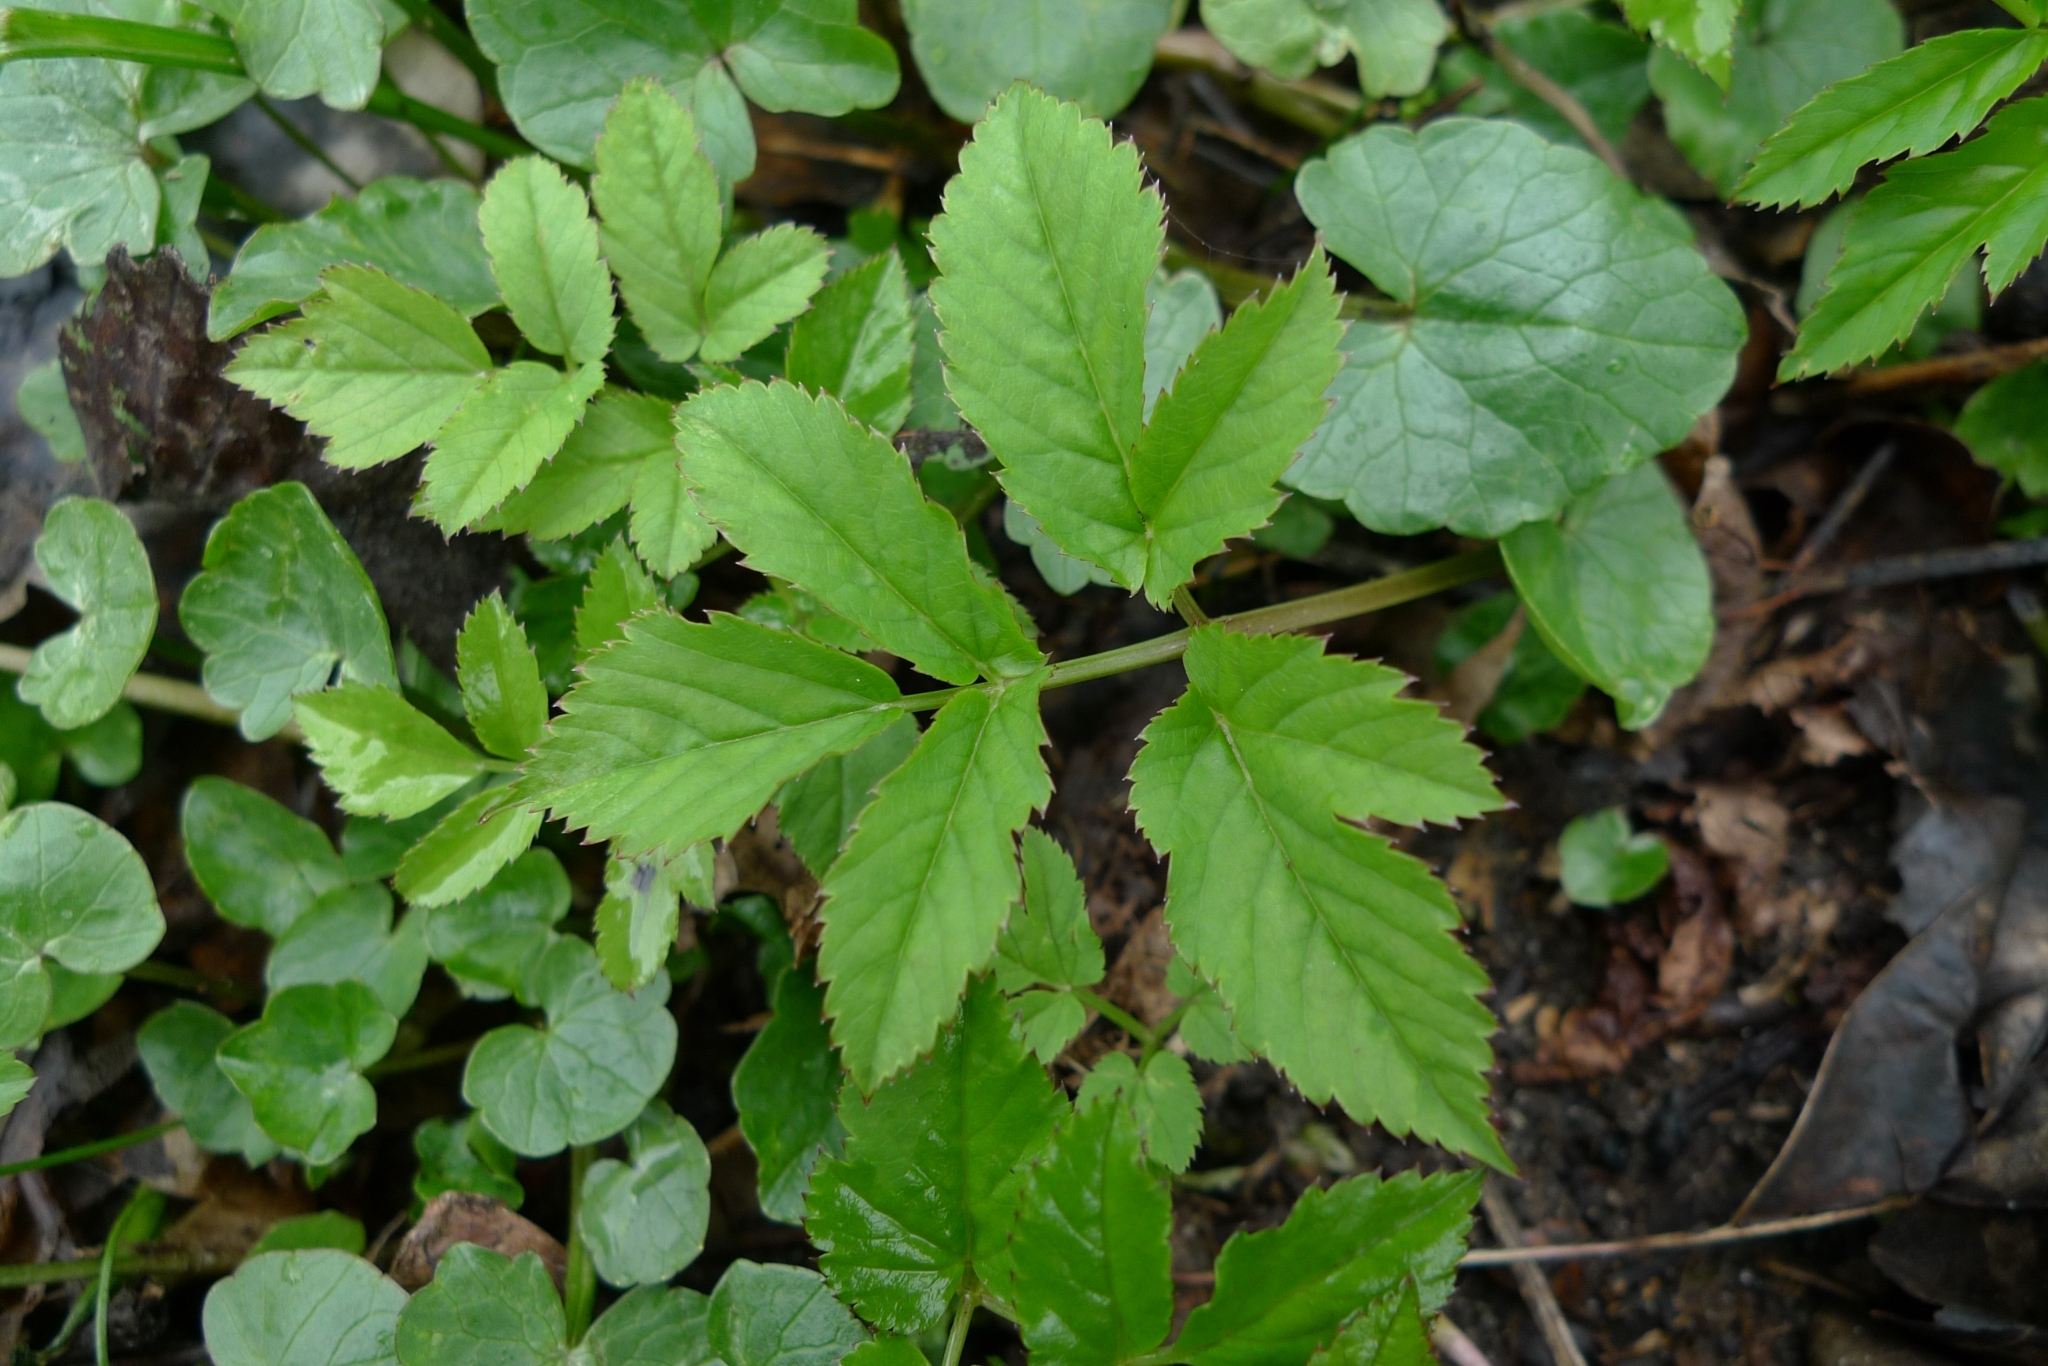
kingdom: Plantae
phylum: Tracheophyta
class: Magnoliopsida
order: Apiales
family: Apiaceae
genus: Aegopodium
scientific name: Aegopodium podagraria
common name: Ground-elder
